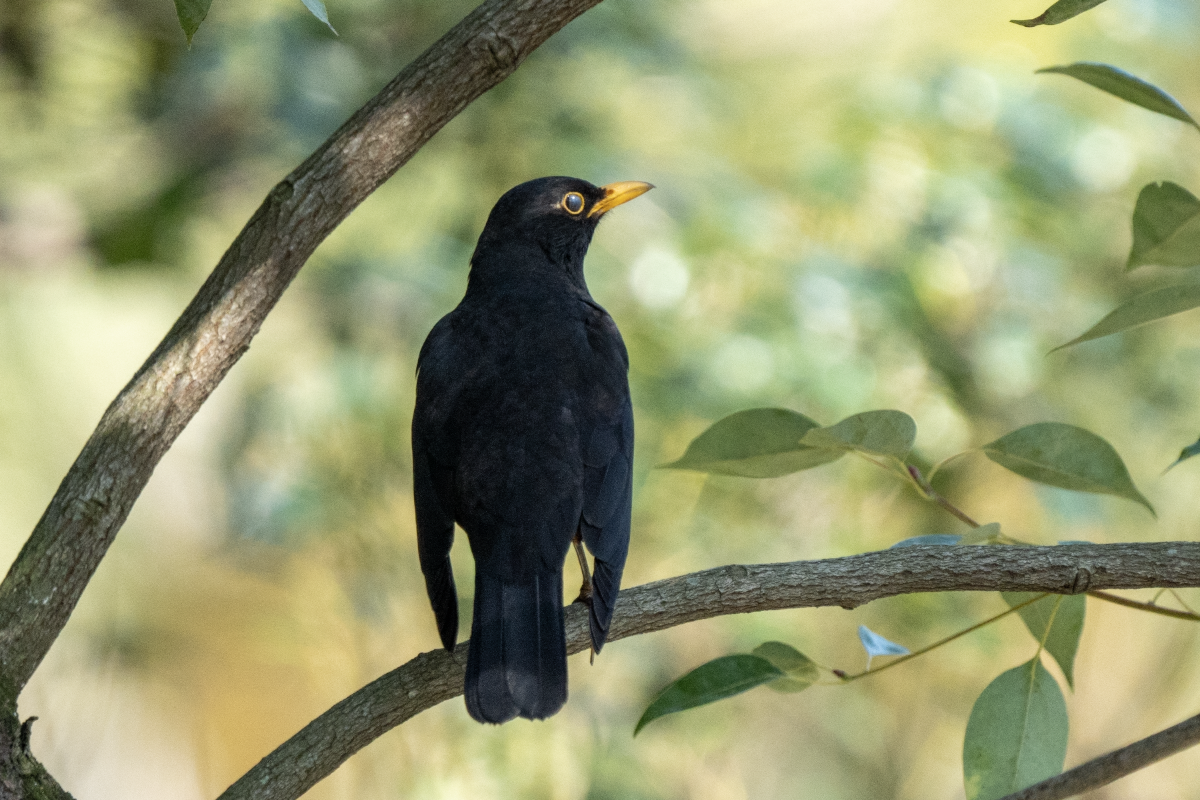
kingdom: Animalia
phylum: Chordata
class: Aves
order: Passeriformes
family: Turdidae
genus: Turdus
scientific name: Turdus mandarinus
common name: Chinese blackbird
